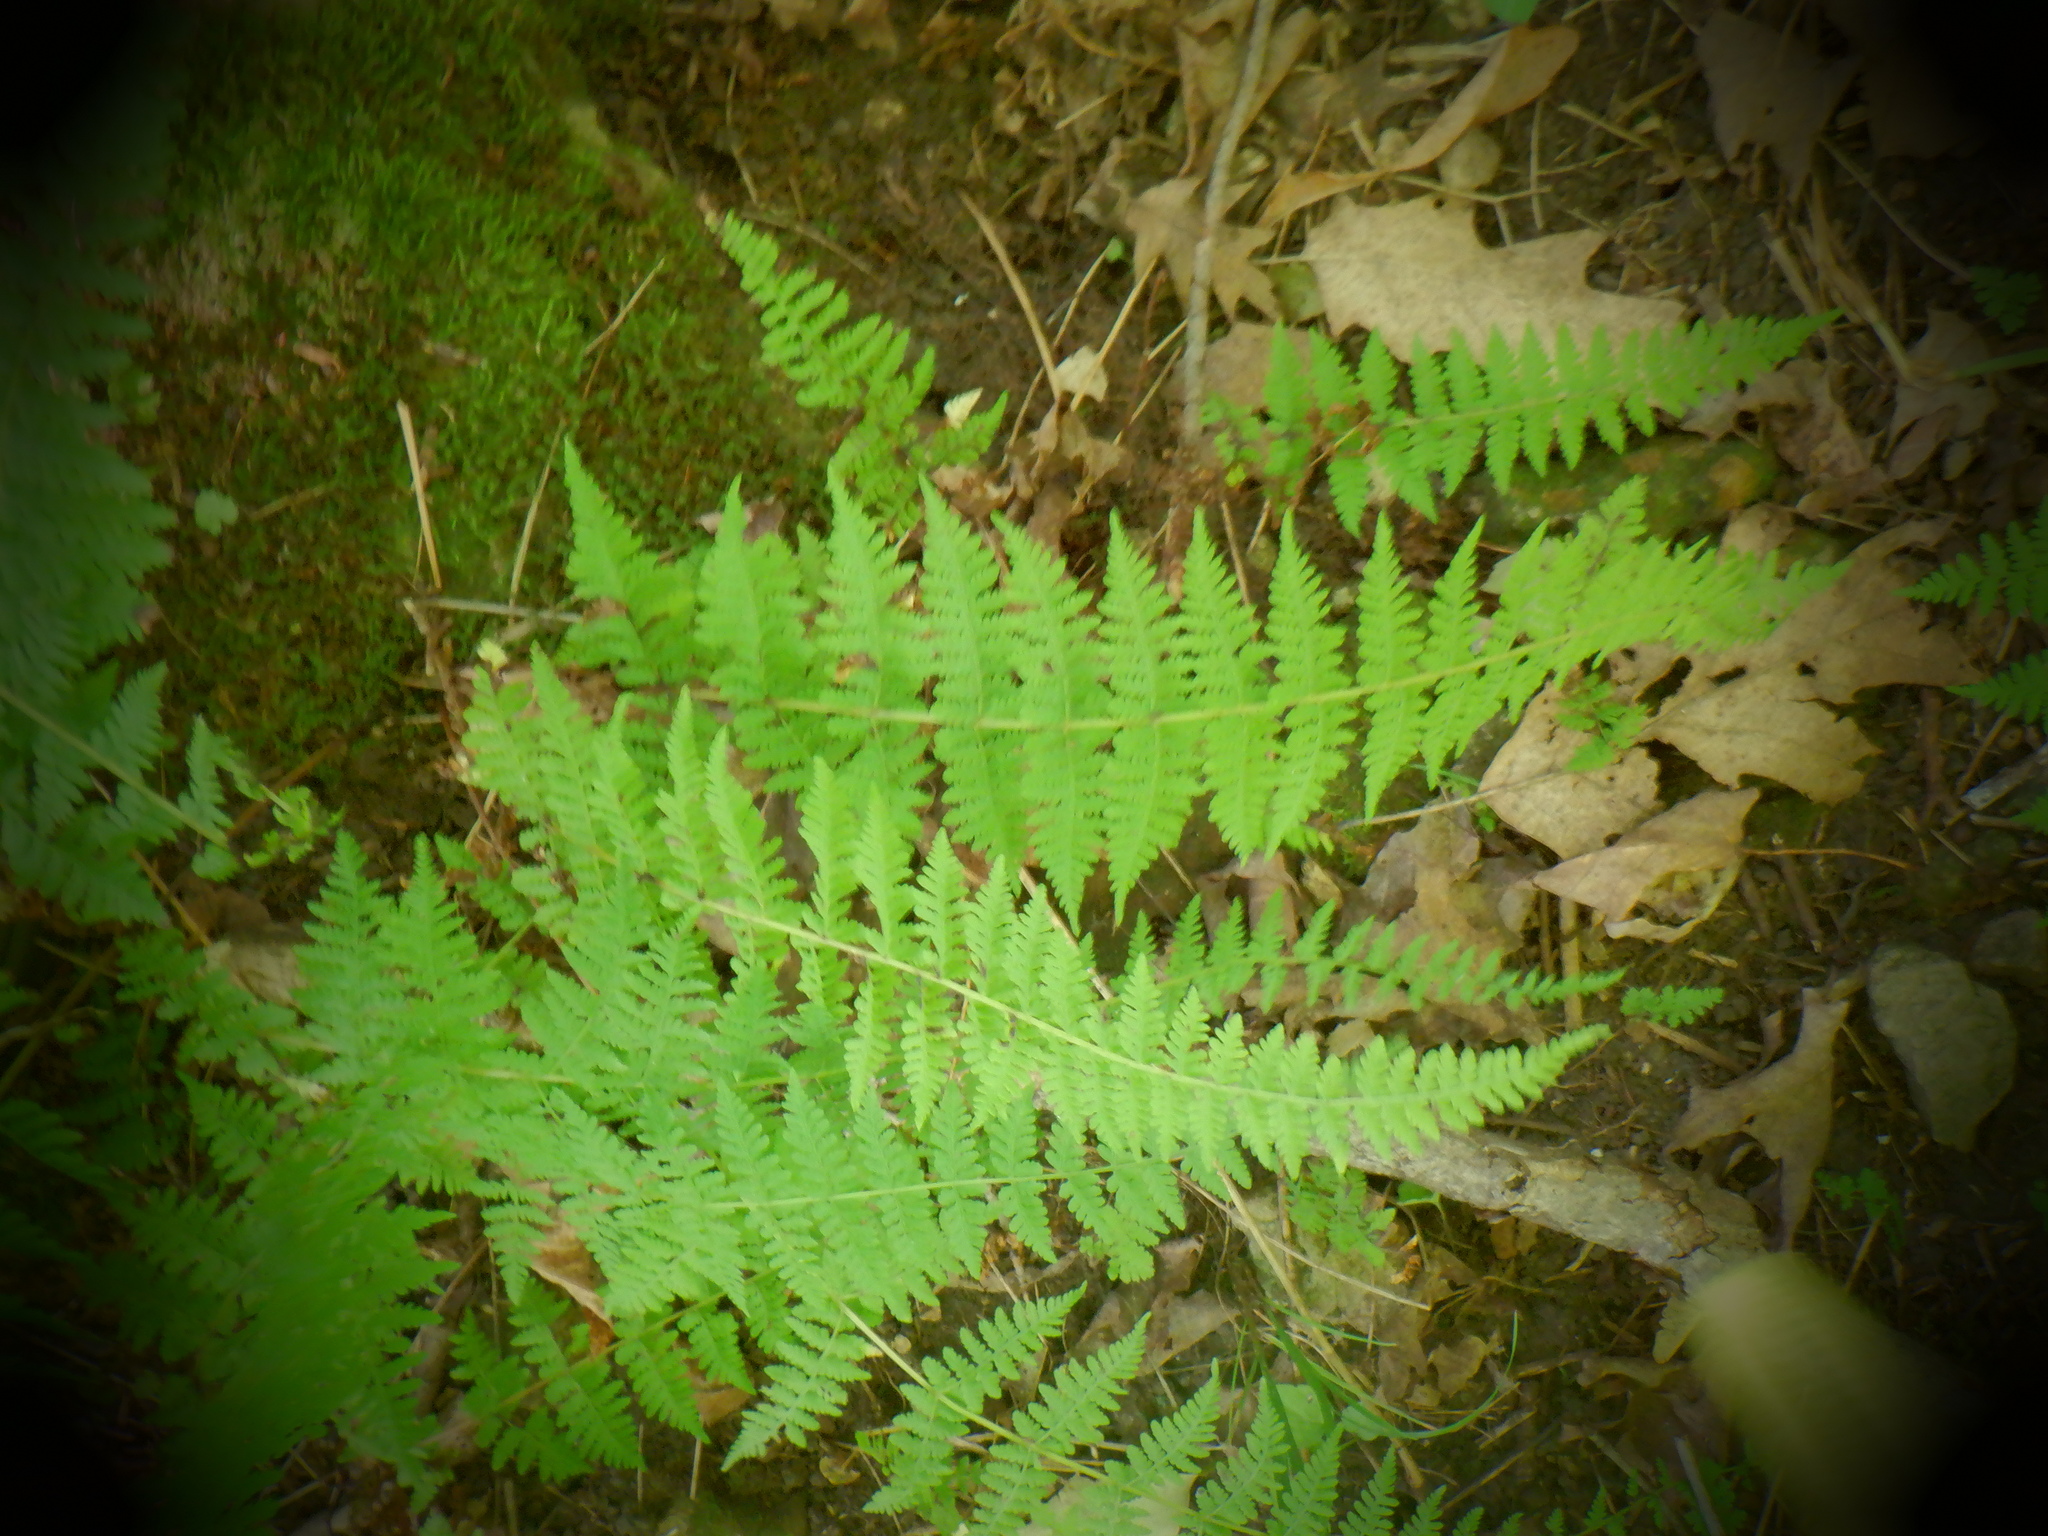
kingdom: Plantae
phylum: Tracheophyta
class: Polypodiopsida
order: Polypodiales
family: Cystopteridaceae
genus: Cystopteris
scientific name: Cystopteris bulbifera
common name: Bulblet bladder fern
